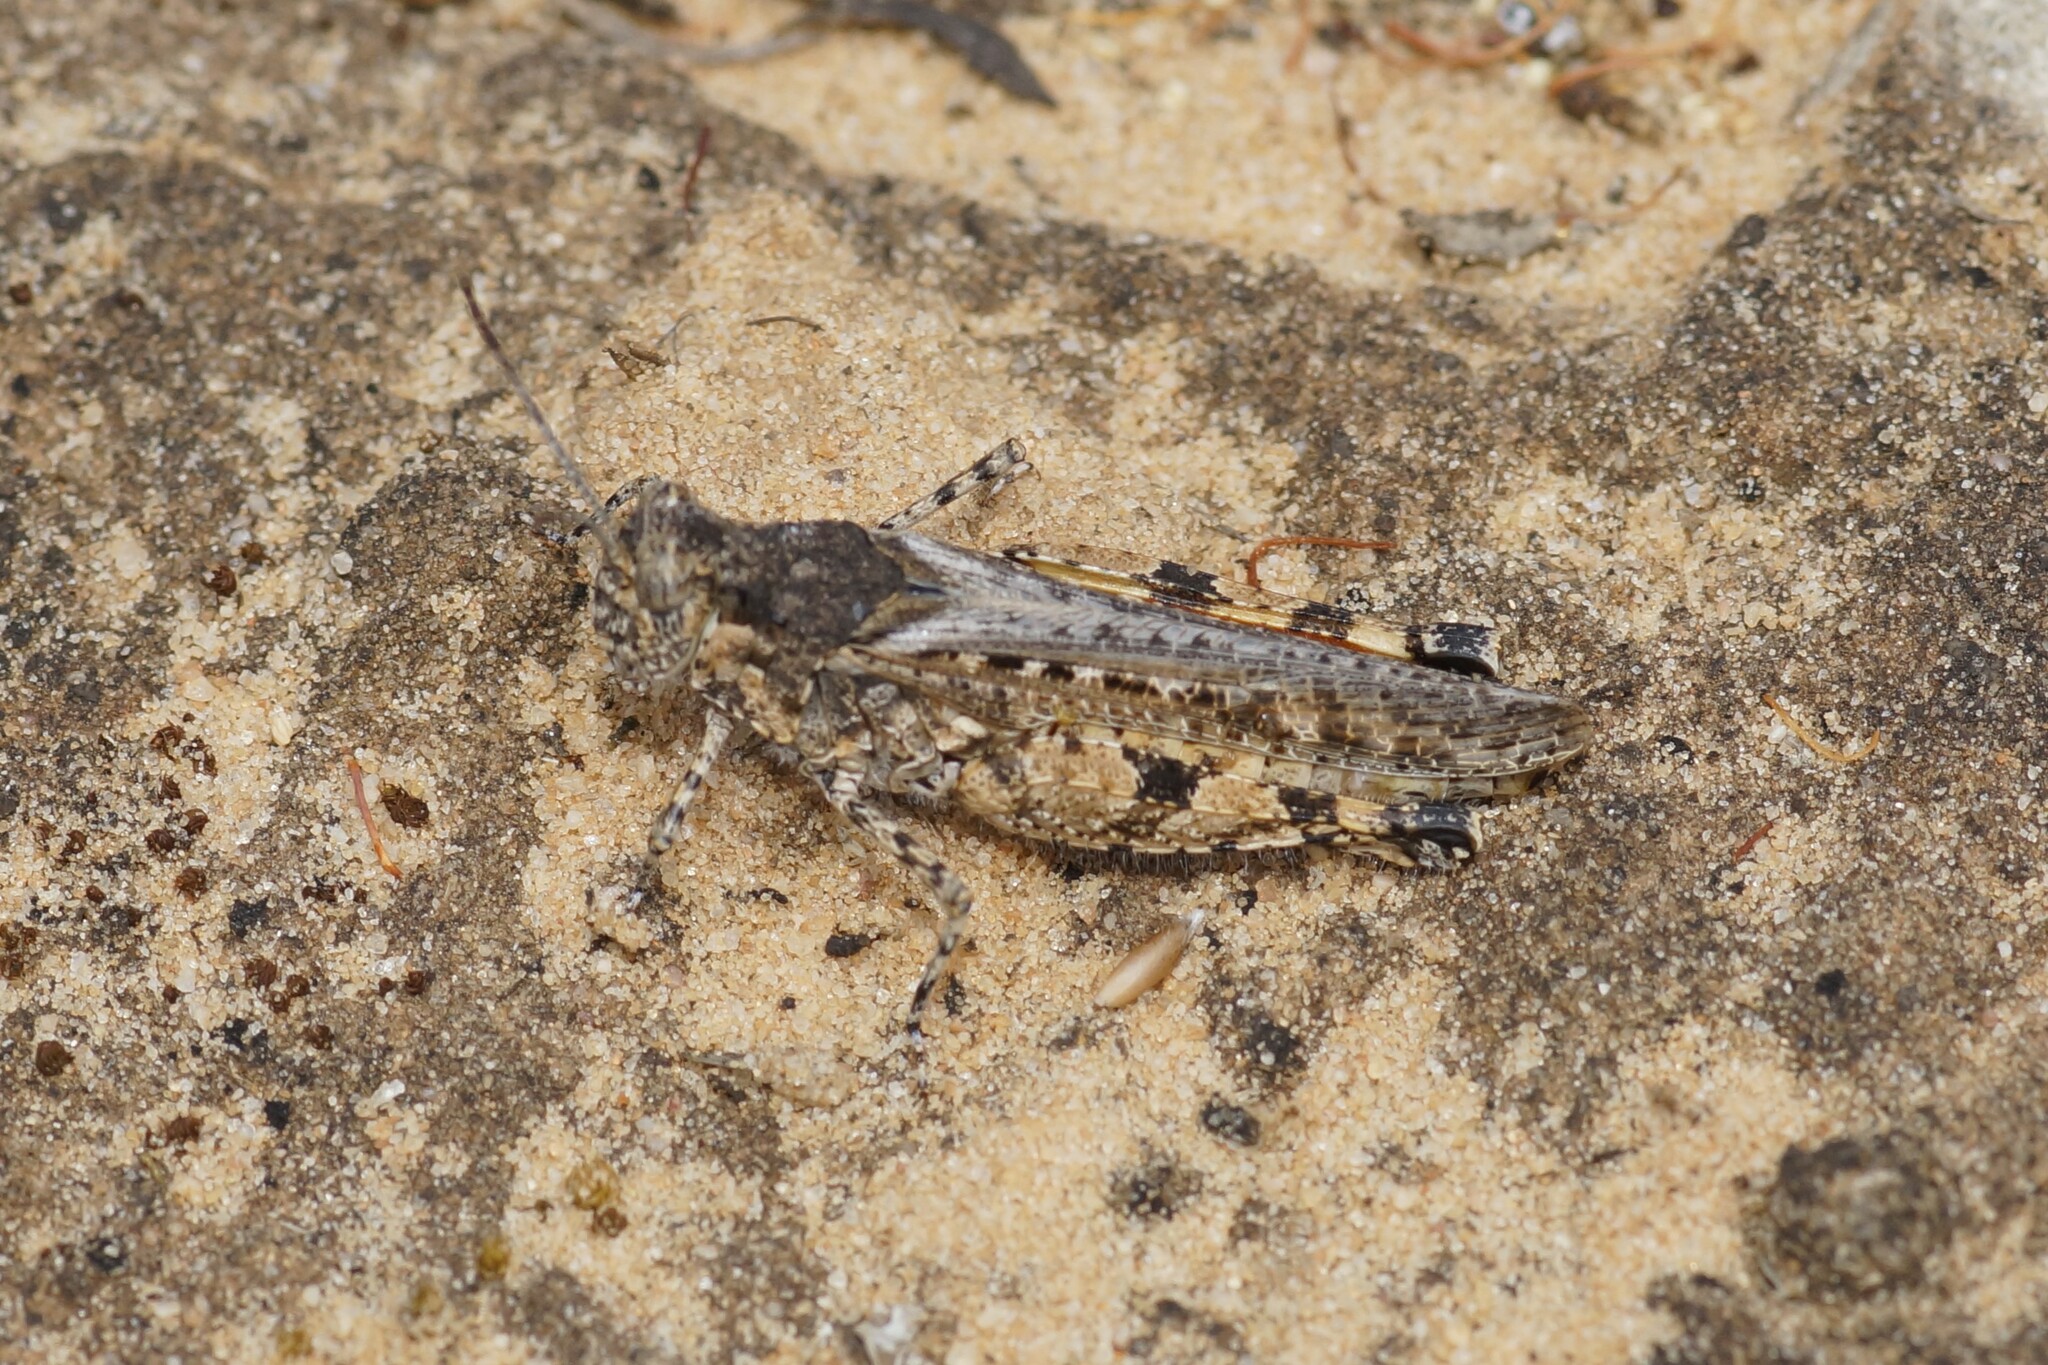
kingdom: Animalia
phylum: Arthropoda
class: Insecta
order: Orthoptera
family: Acrididae
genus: Urnisa
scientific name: Urnisa guttulosa
